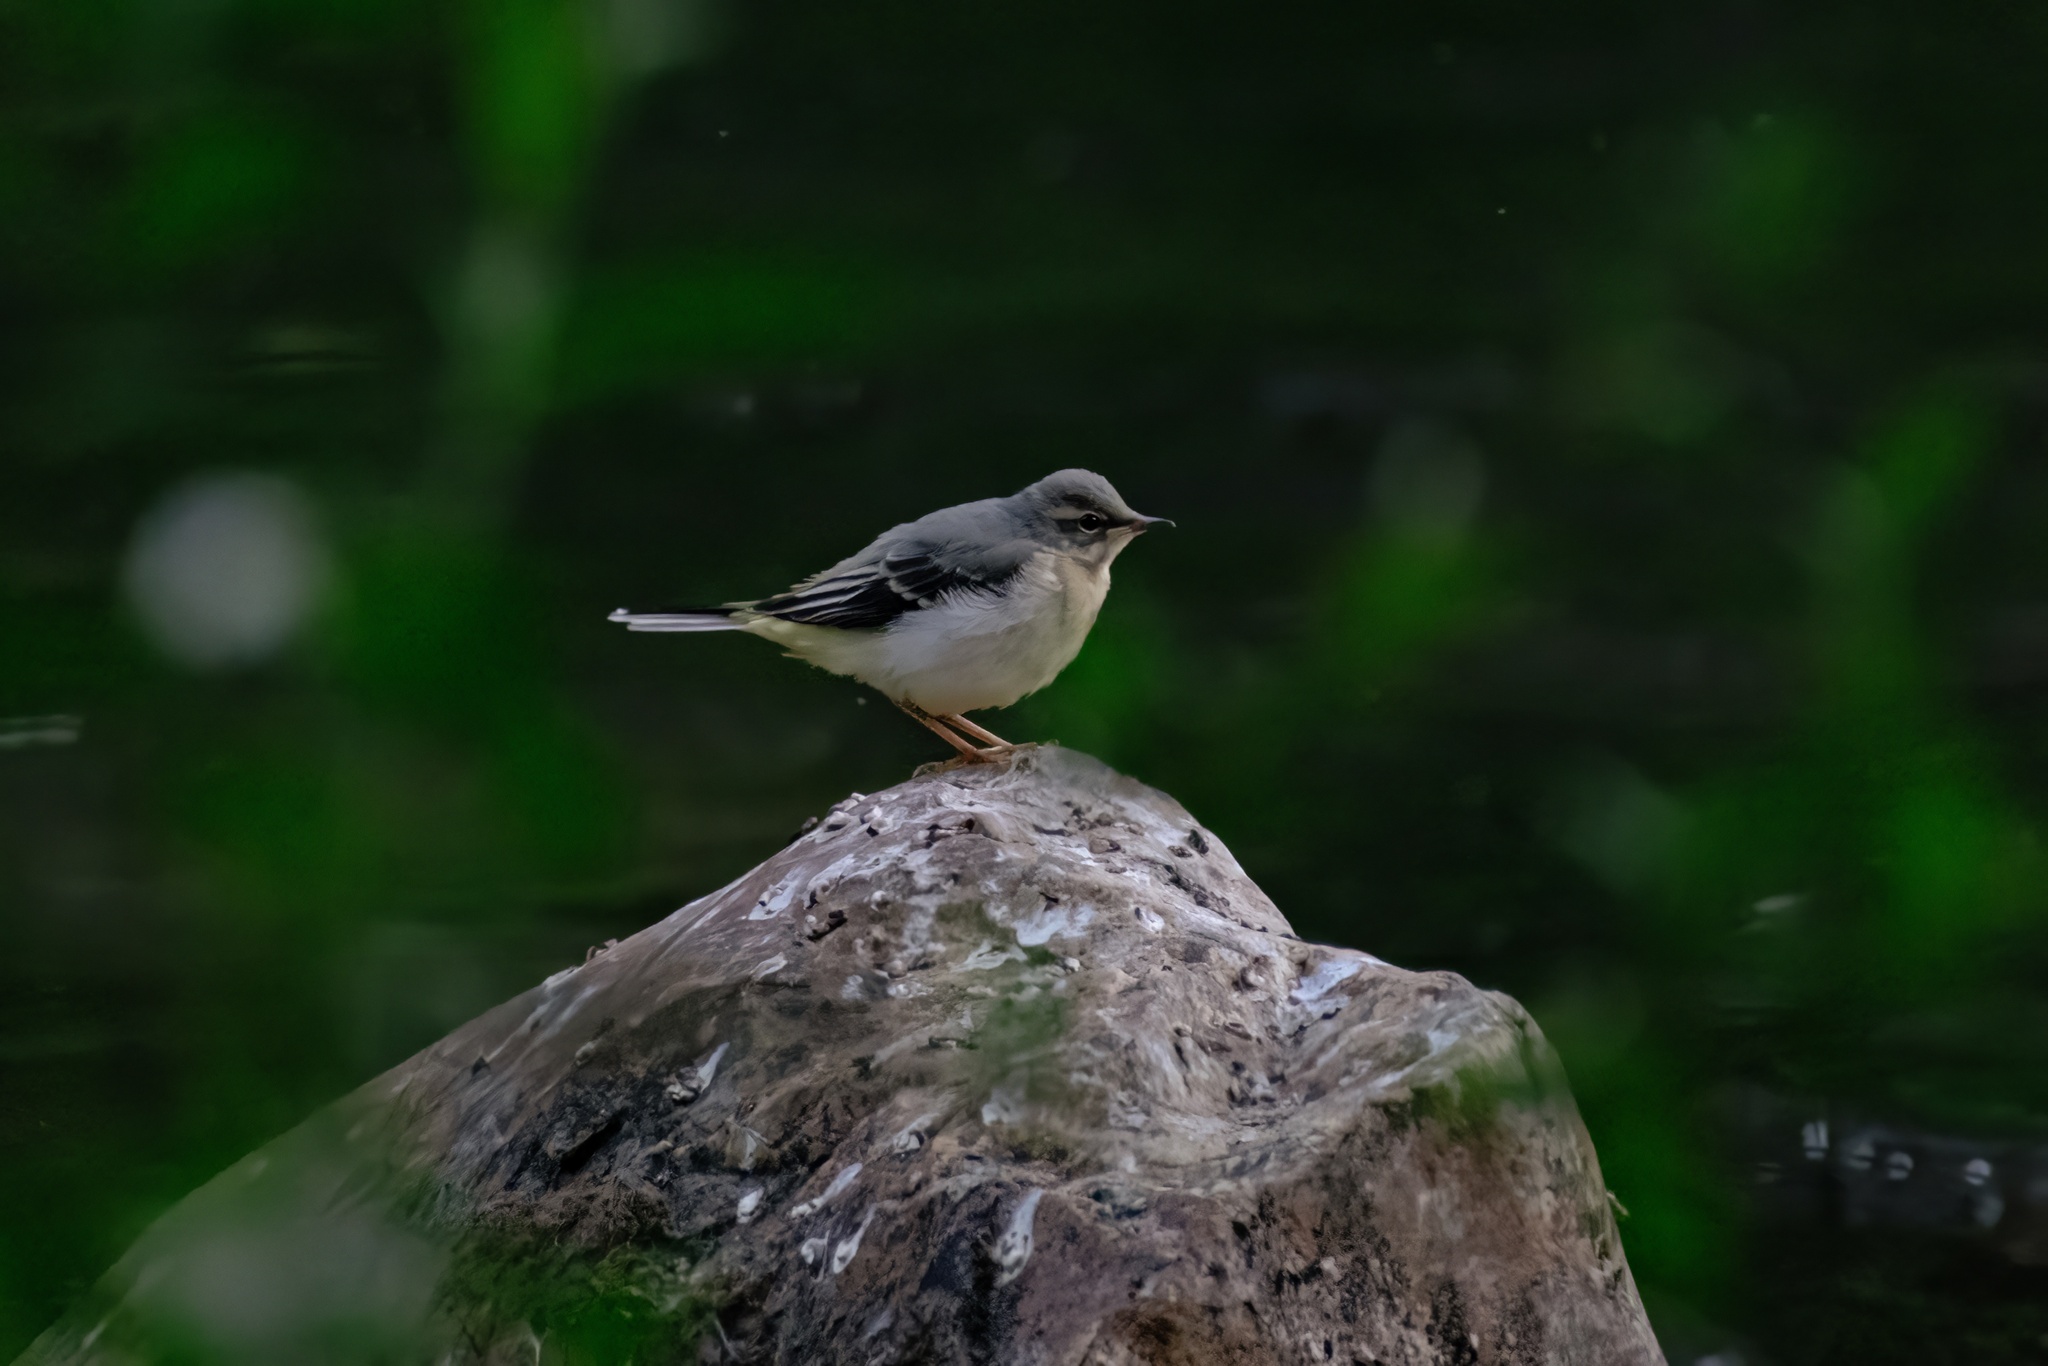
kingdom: Animalia
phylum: Chordata
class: Aves
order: Passeriformes
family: Motacillidae
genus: Motacilla
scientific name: Motacilla cinerea
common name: Grey wagtail
